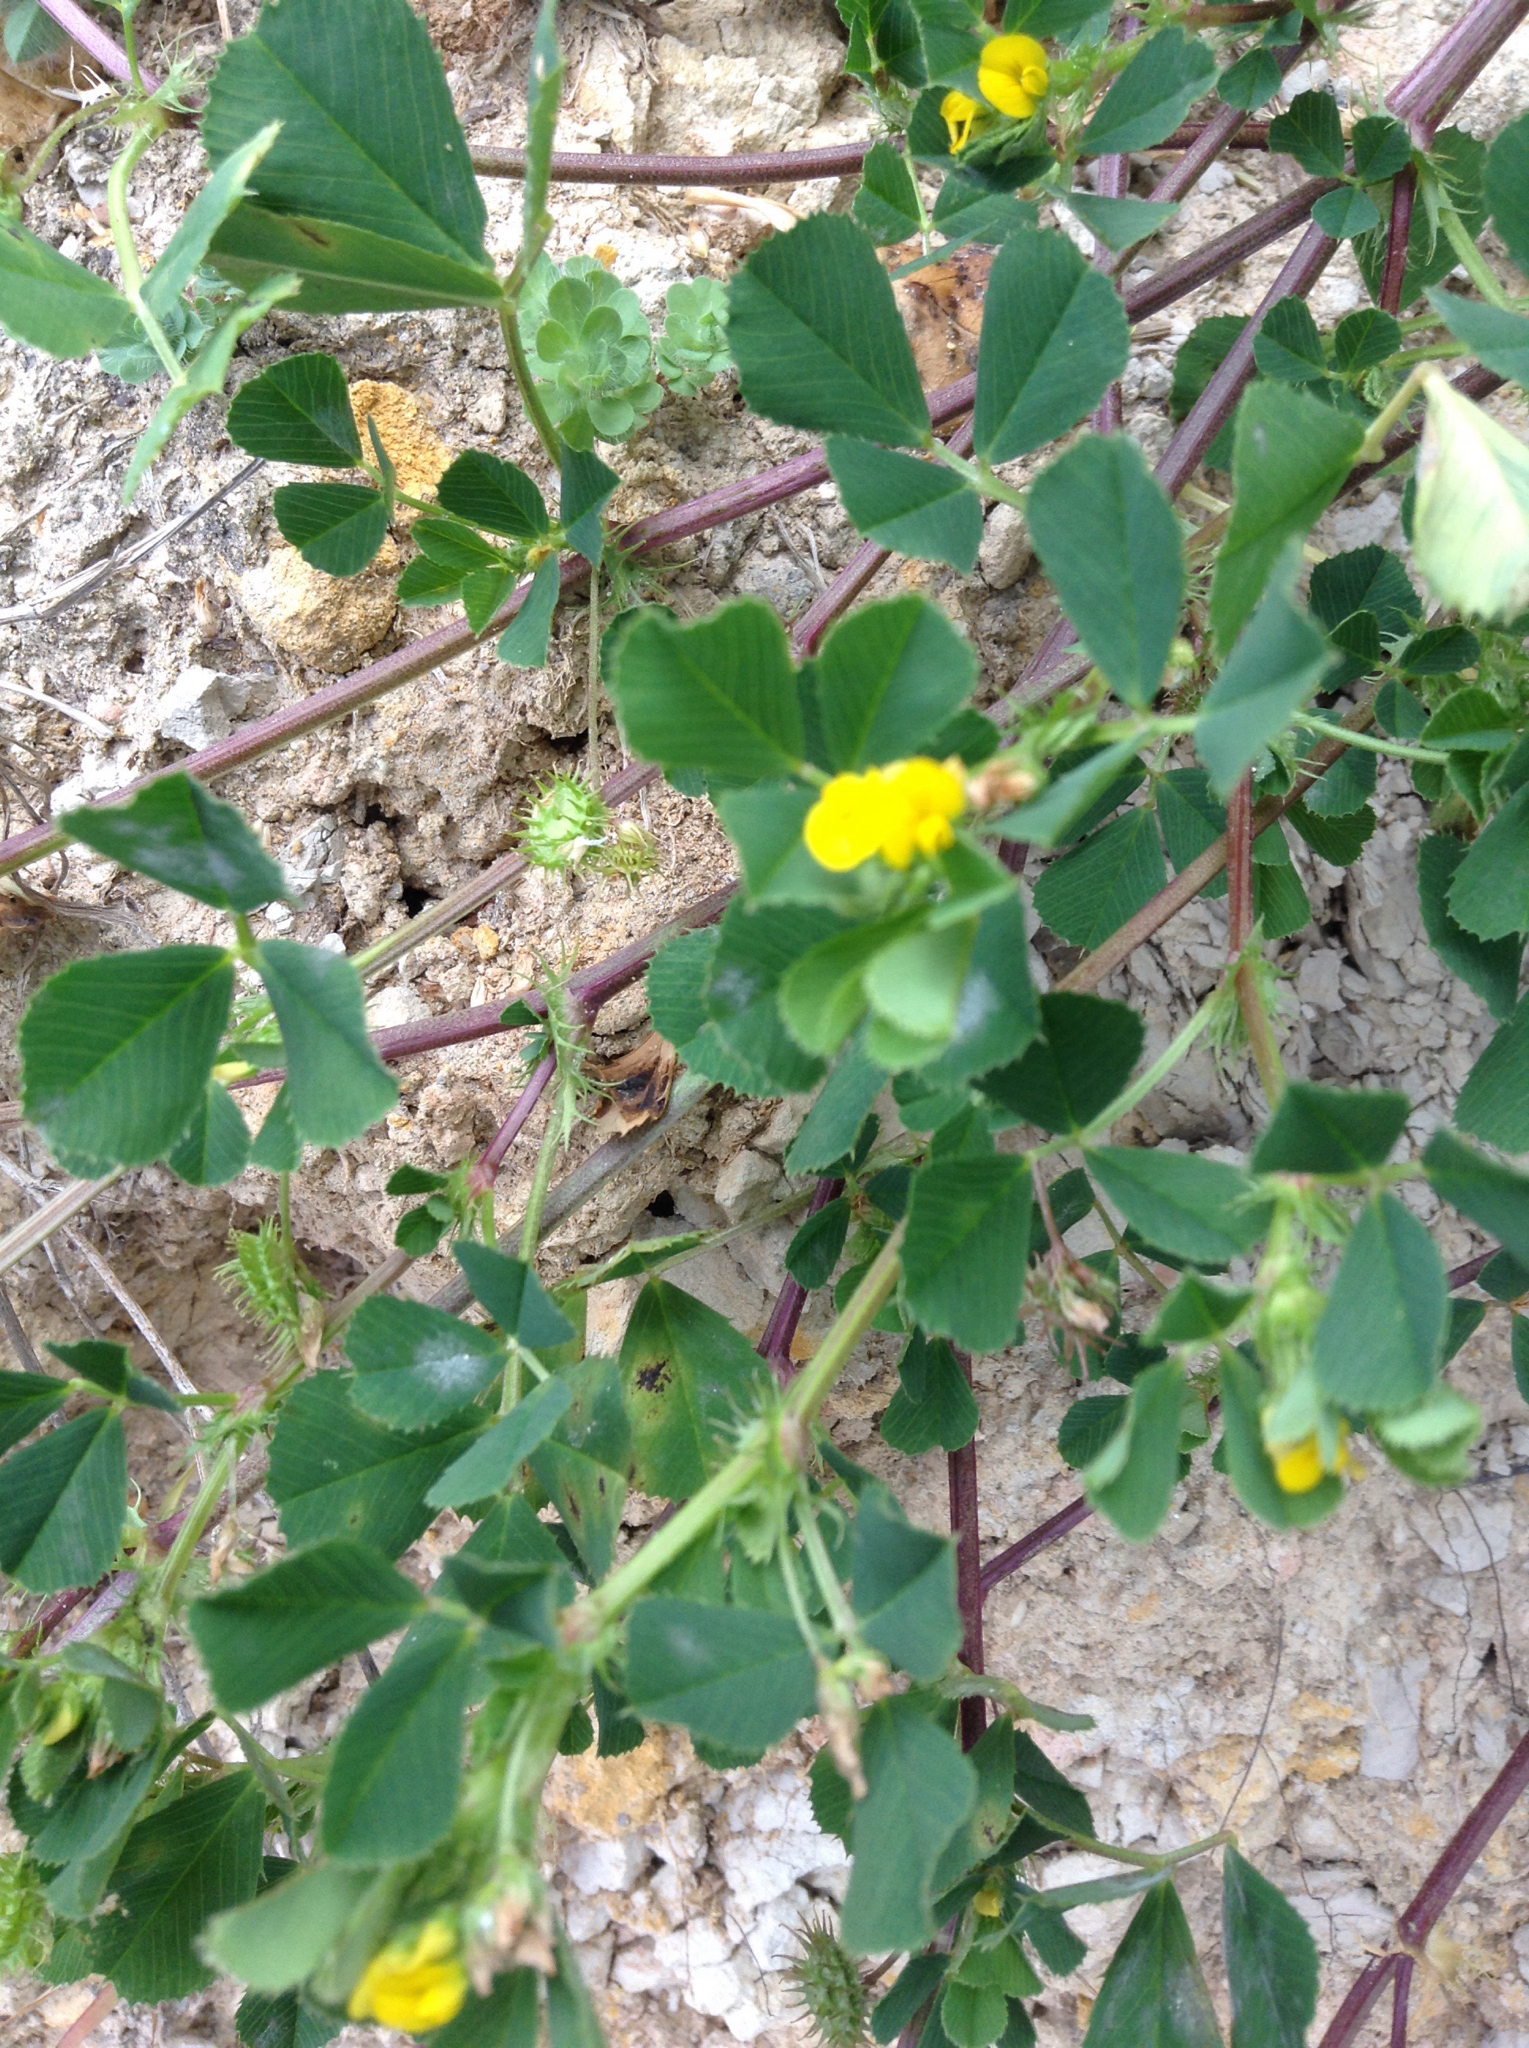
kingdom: Plantae
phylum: Tracheophyta
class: Magnoliopsida
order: Fabales
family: Fabaceae
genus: Medicago
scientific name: Medicago polymorpha
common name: Burclover
